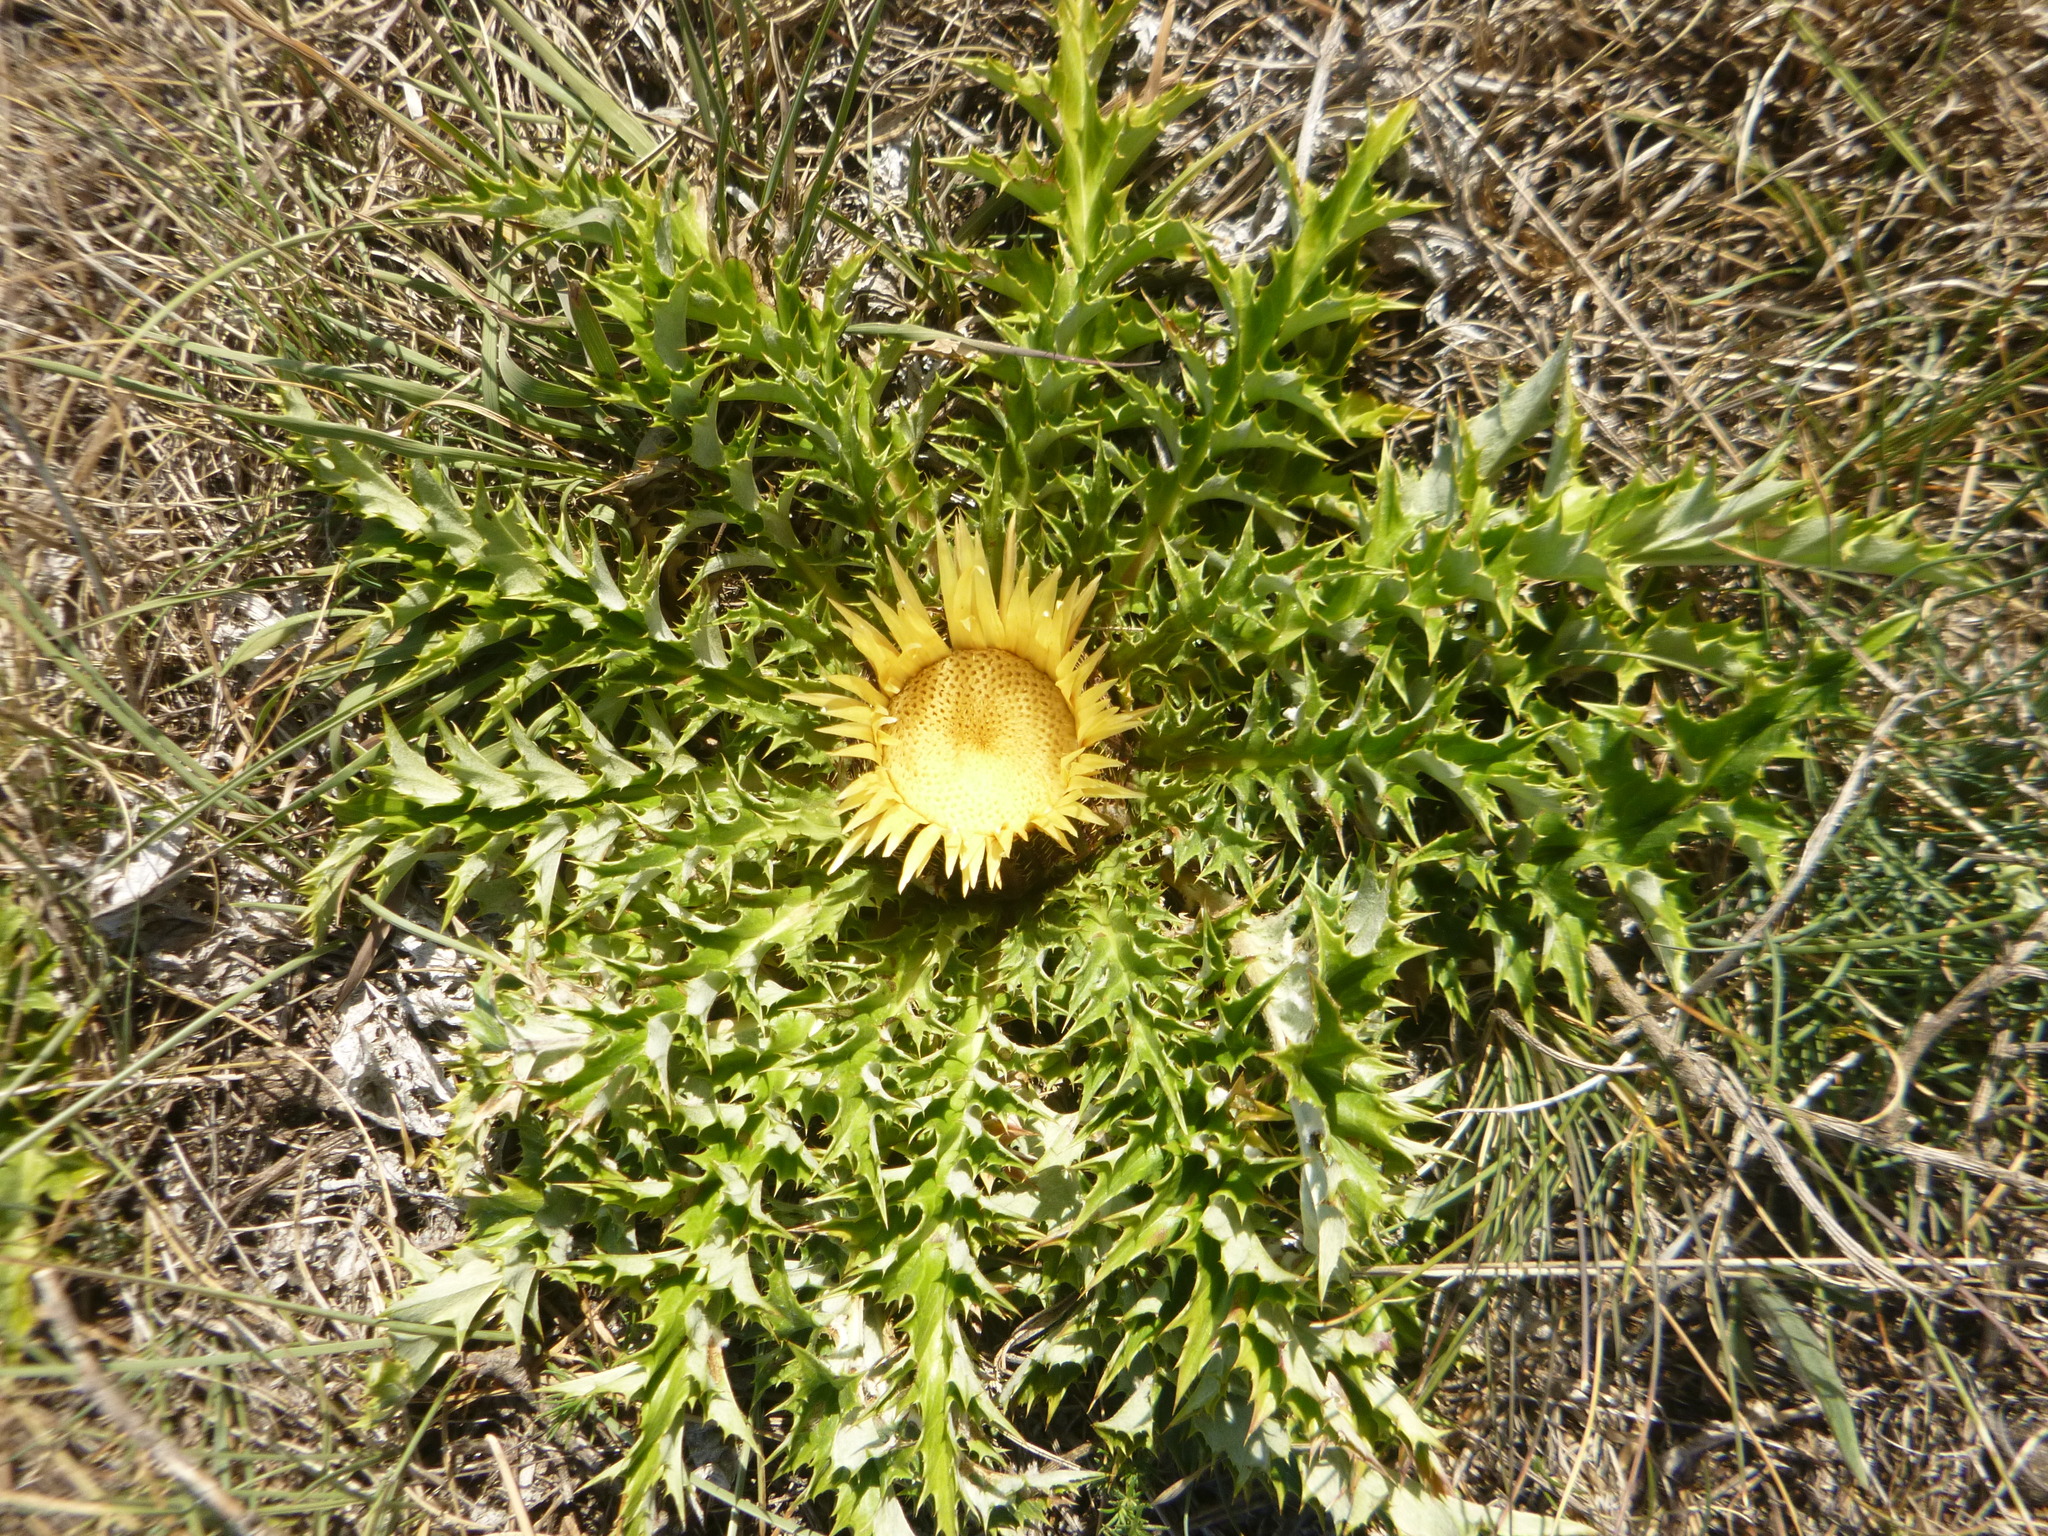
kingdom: Plantae
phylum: Tracheophyta
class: Magnoliopsida
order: Asterales
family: Asteraceae
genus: Carlina
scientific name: Carlina acanthifolia
